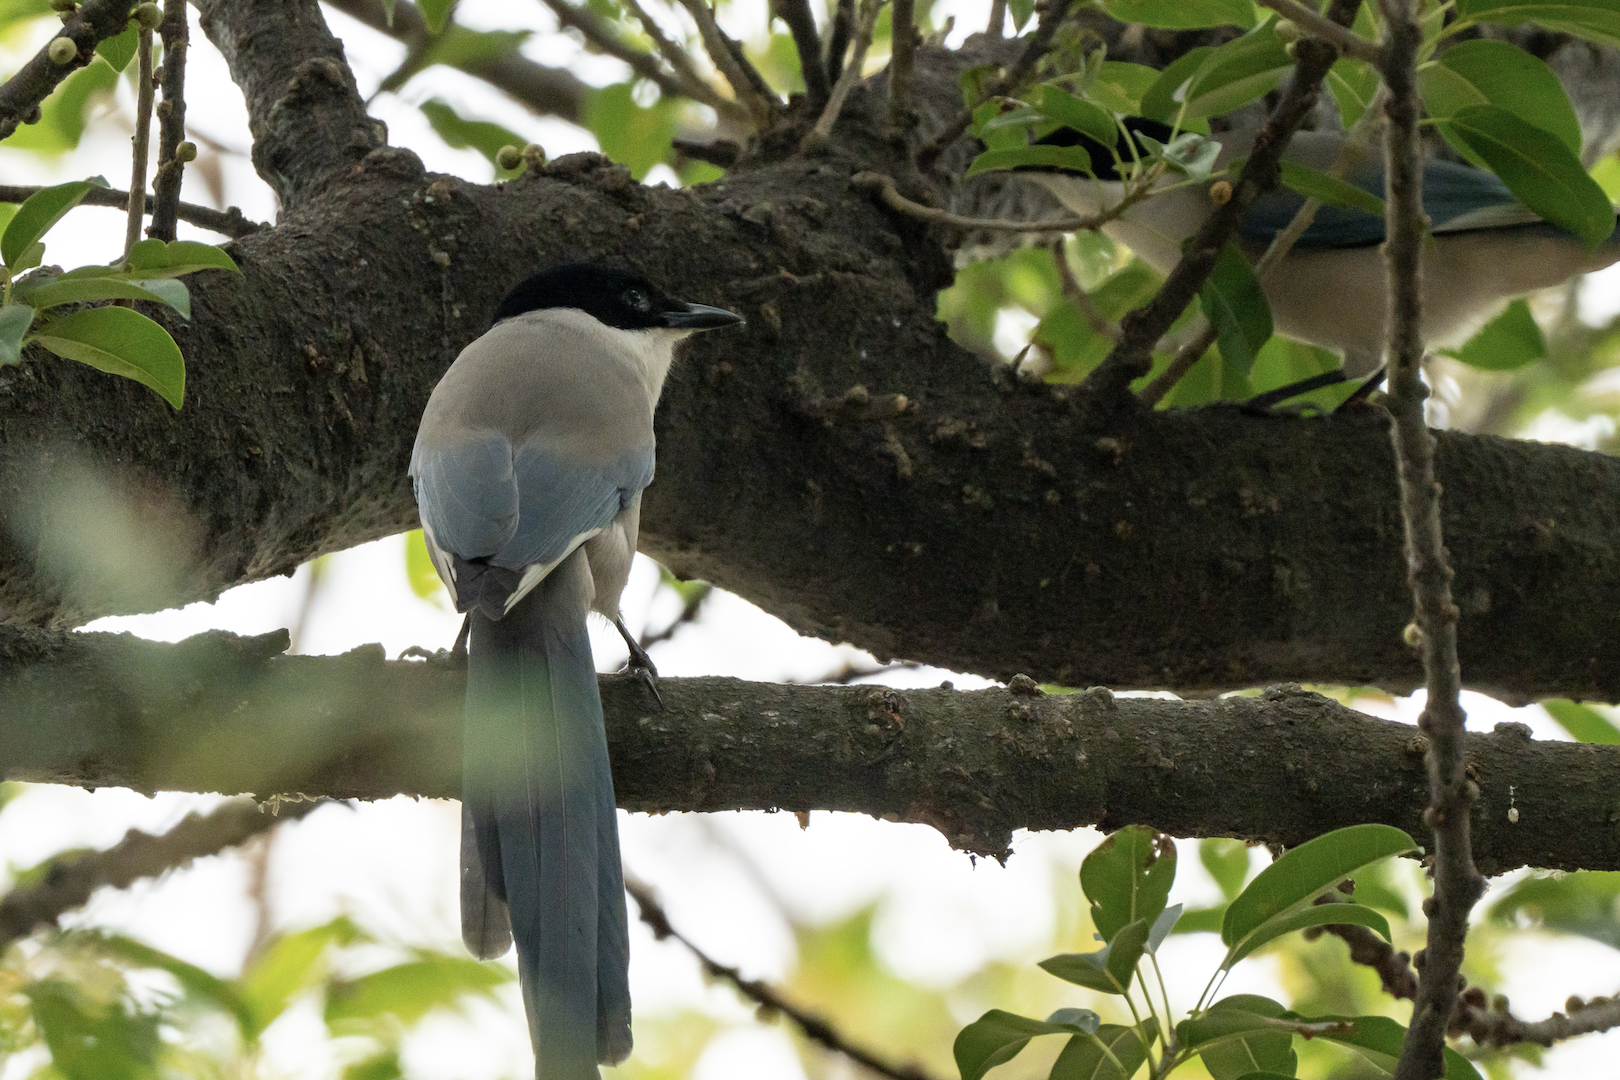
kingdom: Animalia
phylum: Chordata
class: Aves
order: Passeriformes
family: Corvidae
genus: Cyanopica
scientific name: Cyanopica cyanus
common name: Azure-winged magpie
